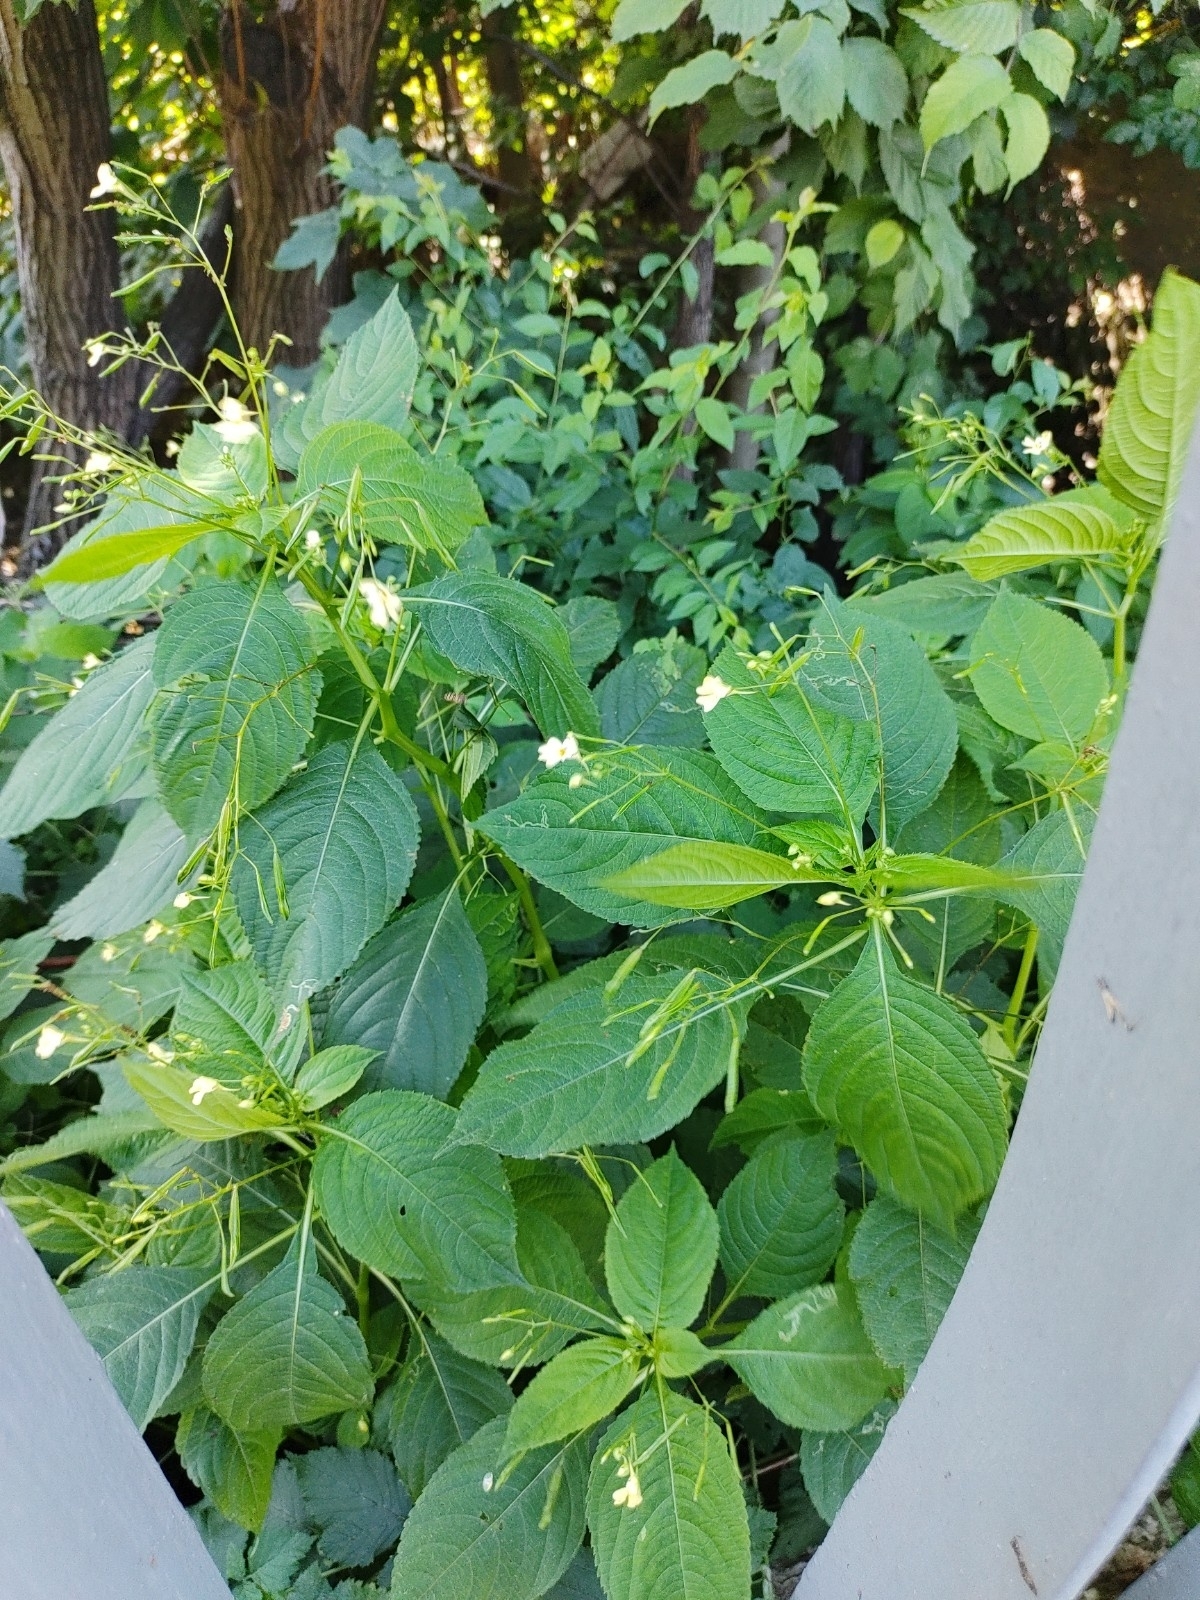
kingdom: Plantae
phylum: Tracheophyta
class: Magnoliopsida
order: Ericales
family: Balsaminaceae
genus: Impatiens
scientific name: Impatiens parviflora
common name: Small balsam
